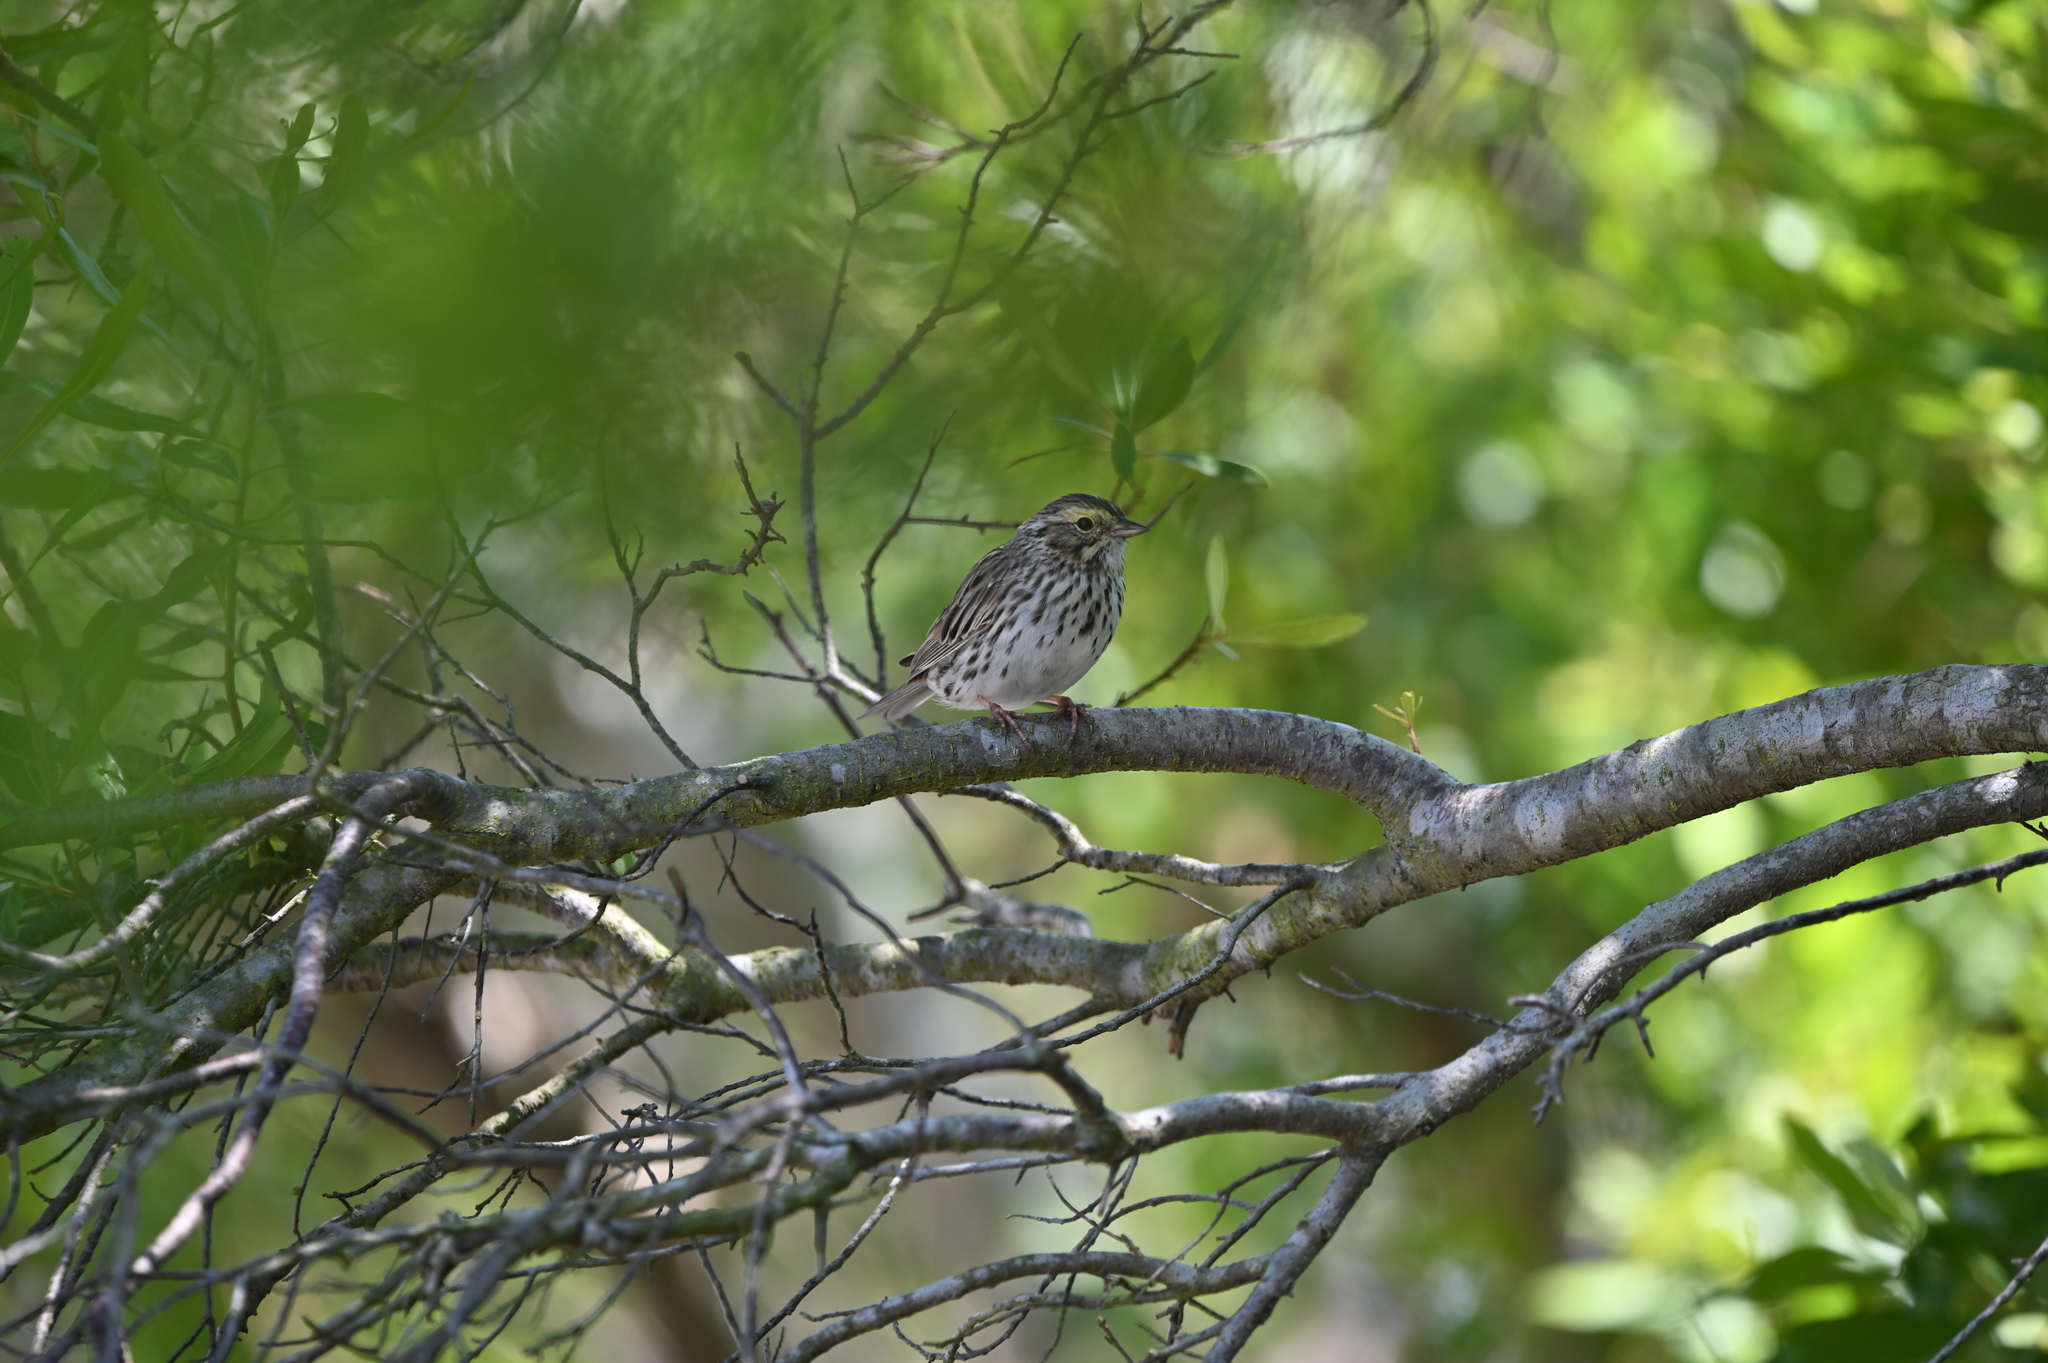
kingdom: Animalia
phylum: Chordata
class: Aves
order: Passeriformes
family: Passerellidae
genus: Passerculus
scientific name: Passerculus sandwichensis
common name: Savannah sparrow
